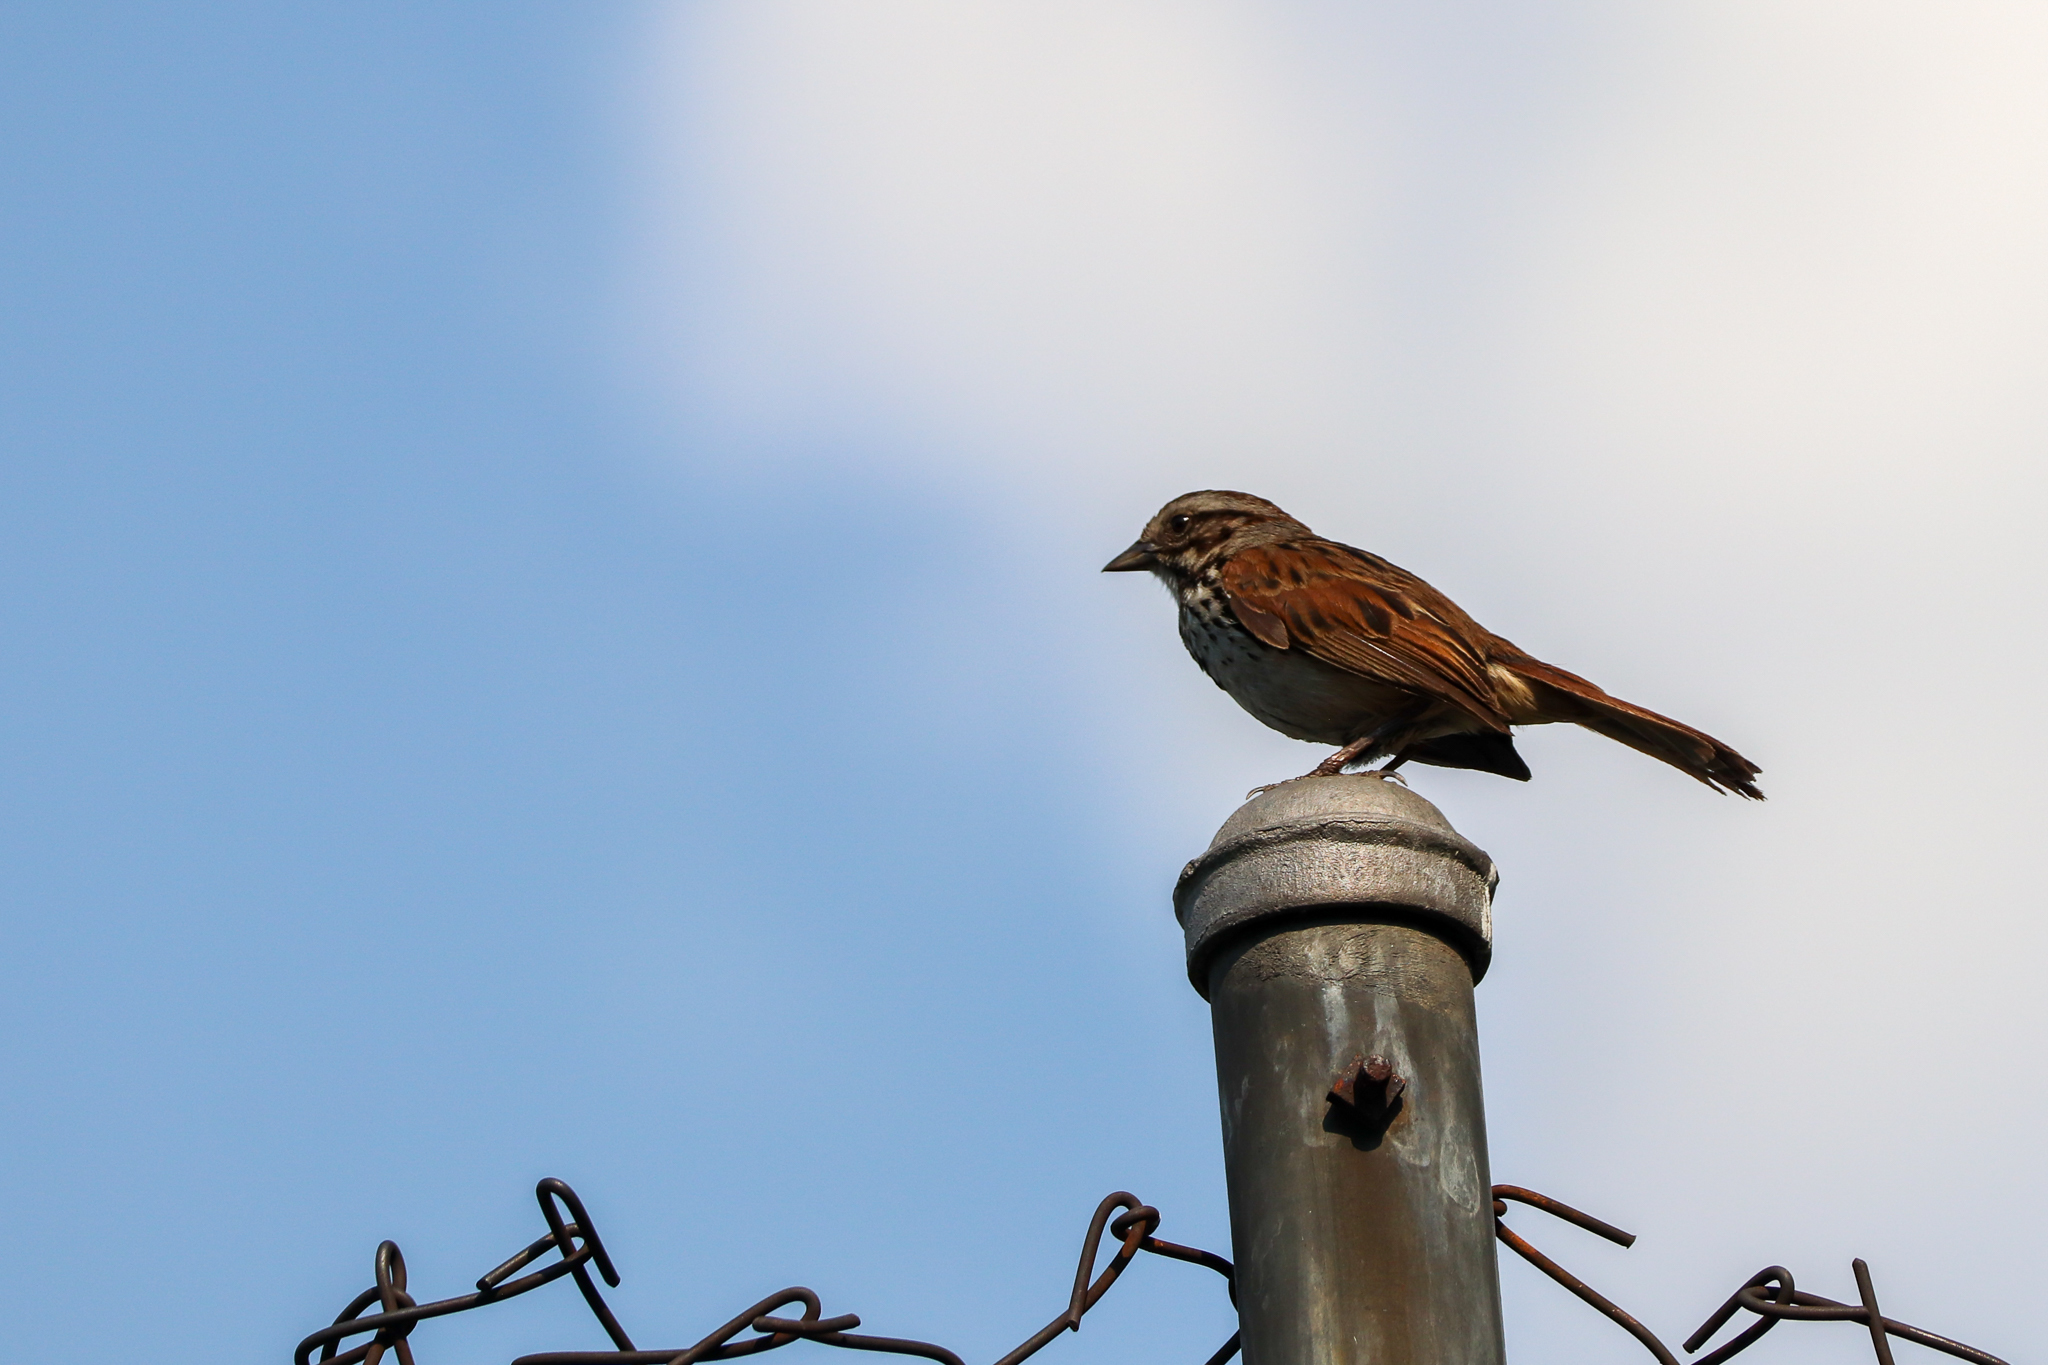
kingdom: Animalia
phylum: Chordata
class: Aves
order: Passeriformes
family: Passerellidae
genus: Melospiza
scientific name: Melospiza melodia
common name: Song sparrow
